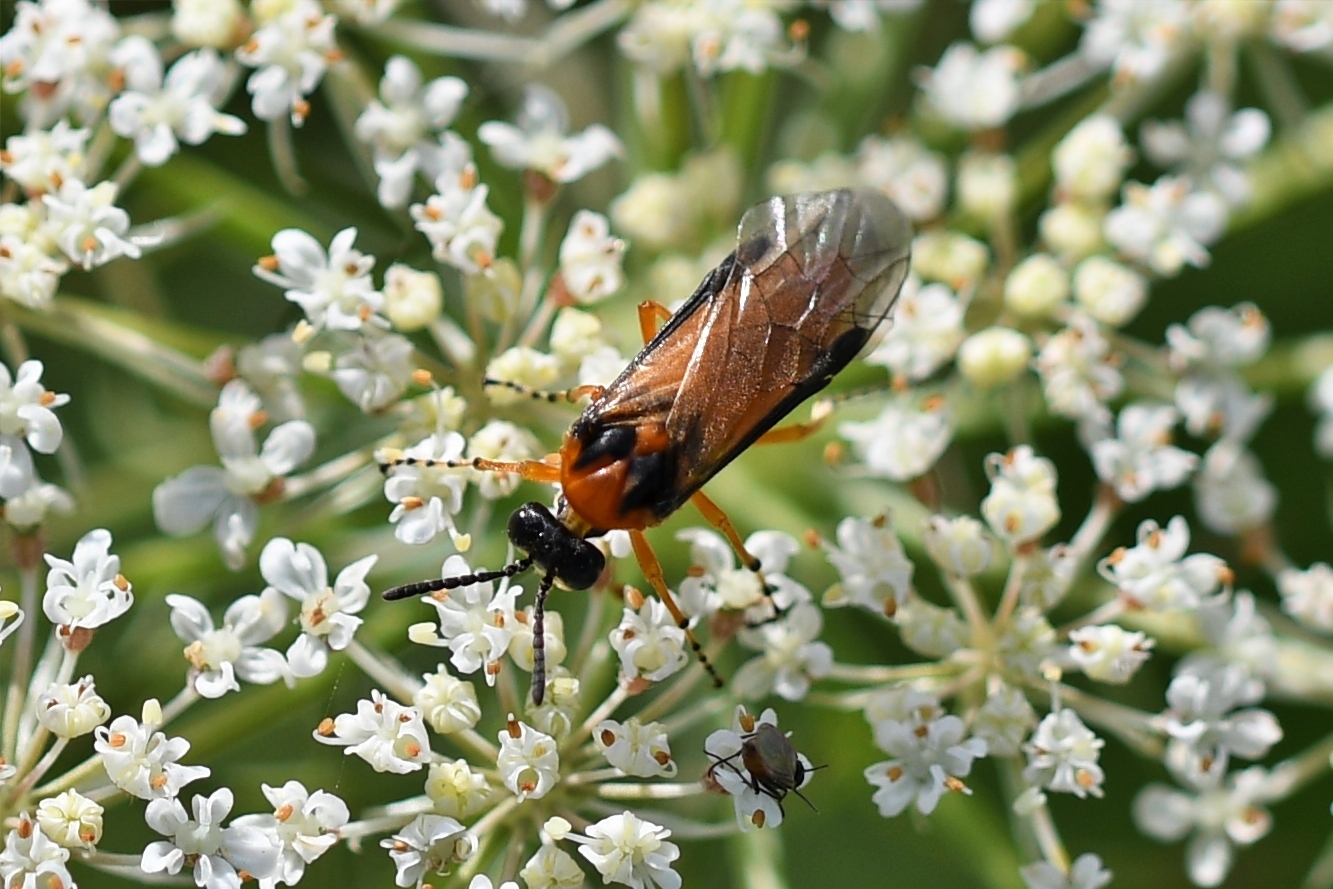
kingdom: Animalia
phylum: Arthropoda
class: Insecta
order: Hymenoptera
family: Tenthredinidae
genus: Athalia
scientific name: Athalia rosae
